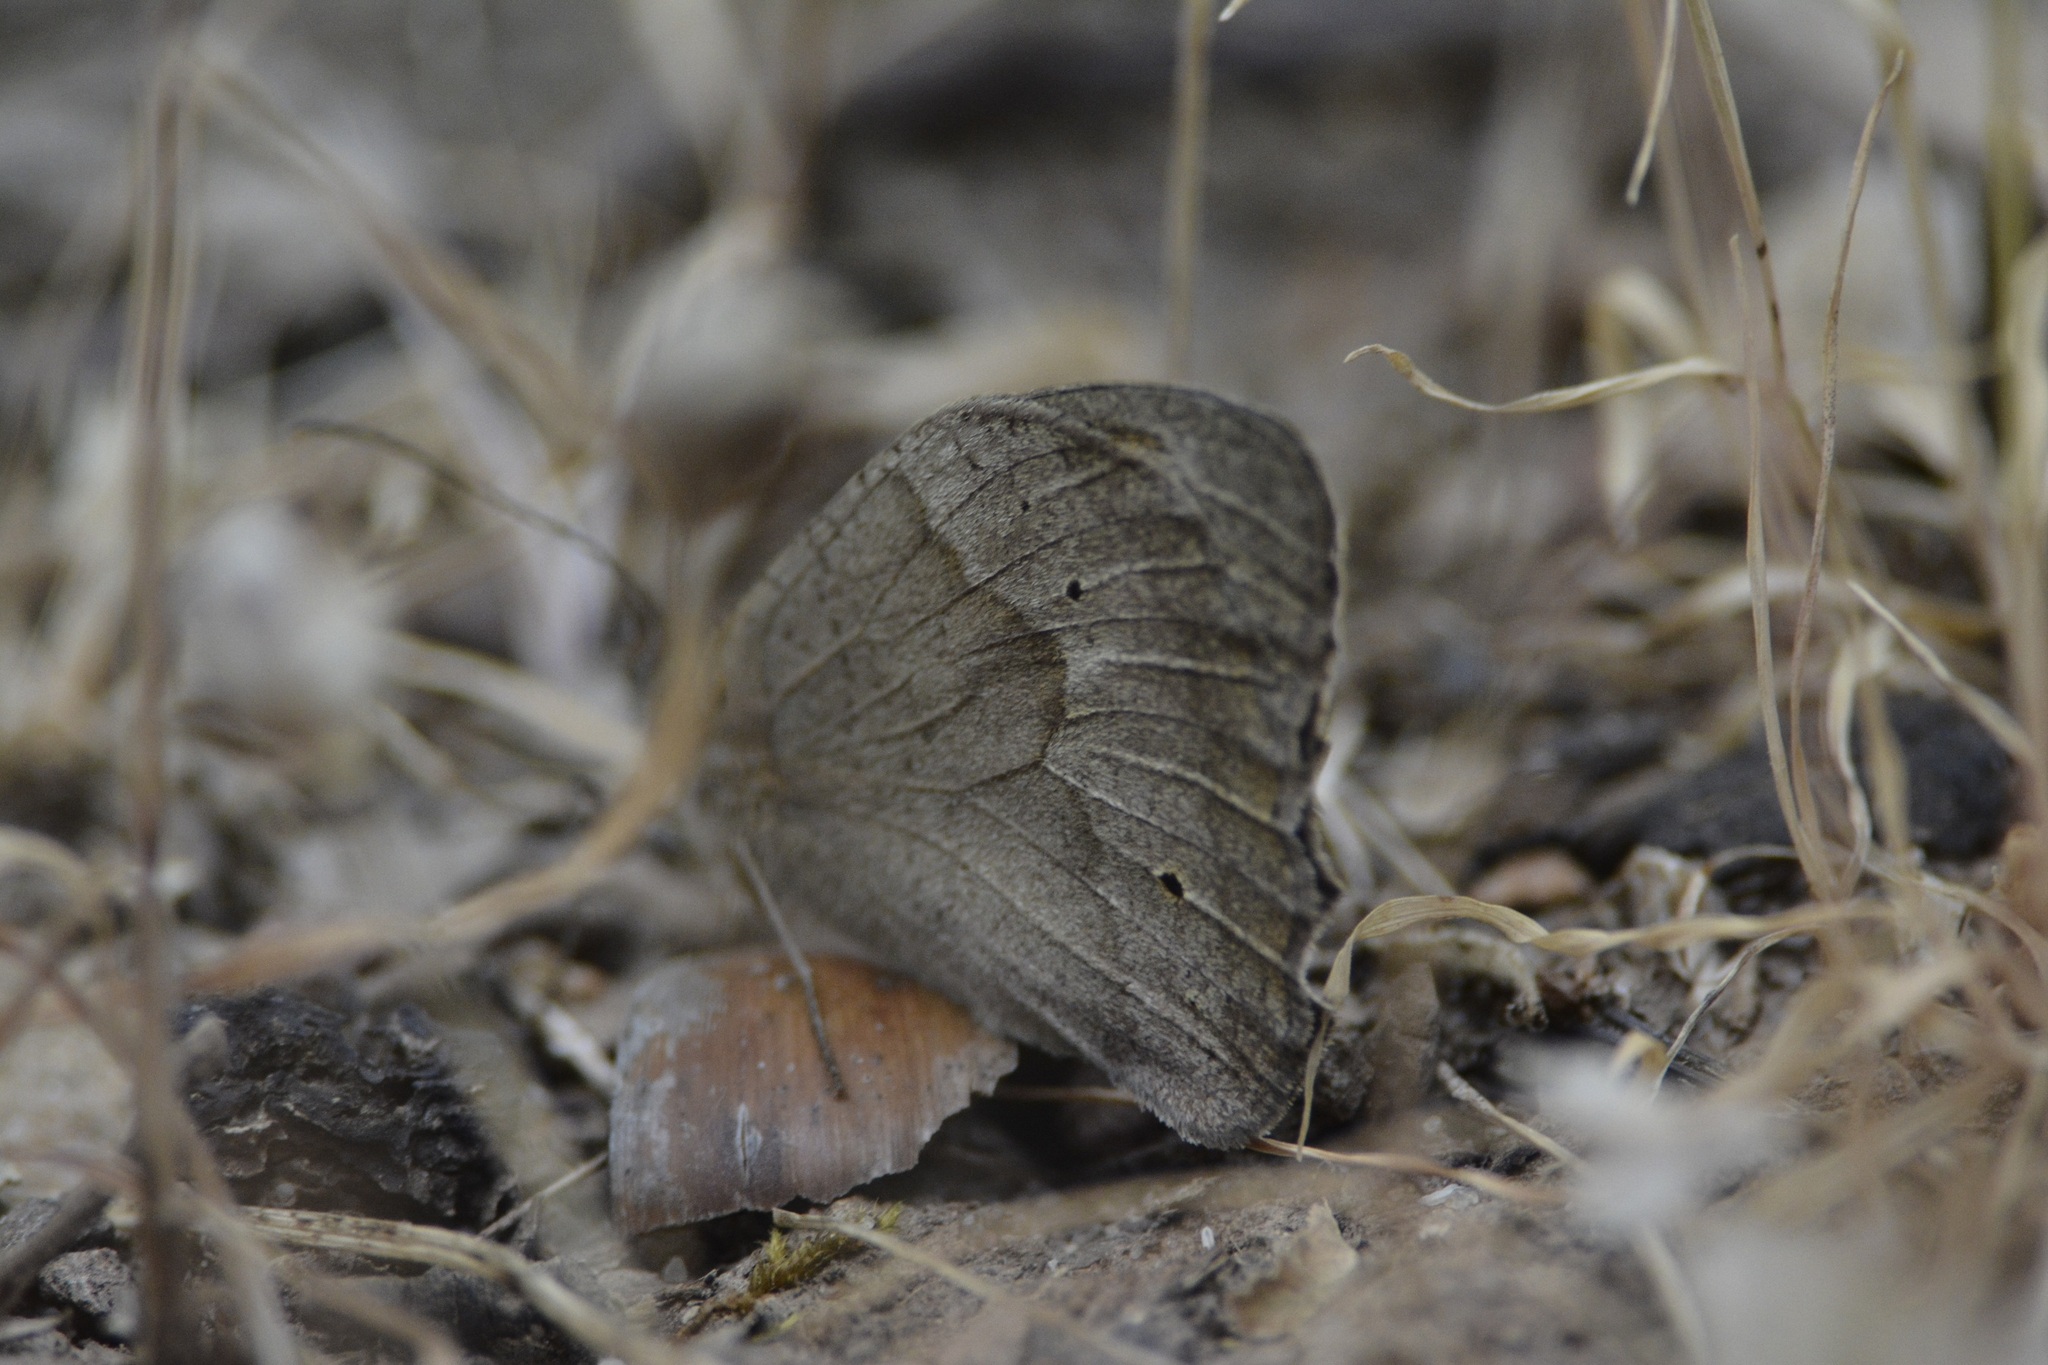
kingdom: Animalia
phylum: Arthropoda
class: Insecta
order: Lepidoptera
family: Nymphalidae
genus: Maniola
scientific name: Maniola jurtina
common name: Meadow brown
